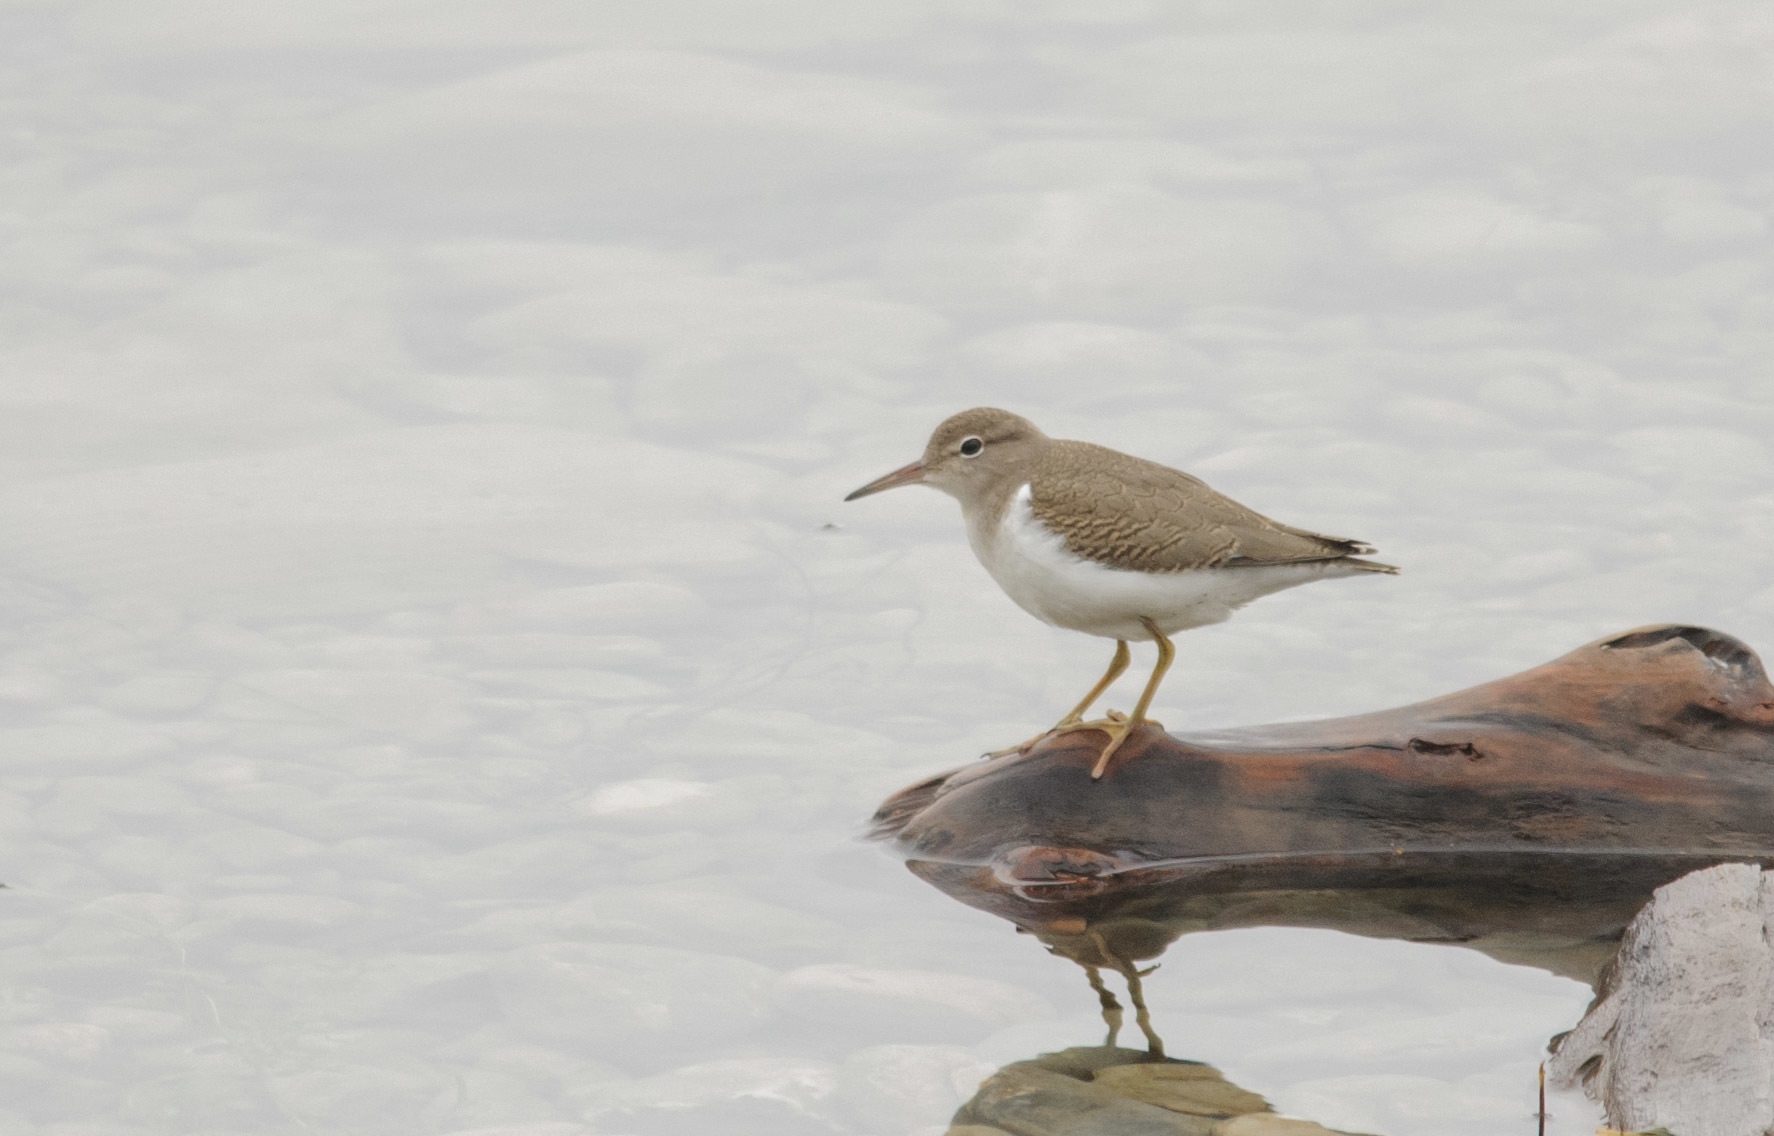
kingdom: Animalia
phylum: Chordata
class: Aves
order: Charadriiformes
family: Scolopacidae
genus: Actitis
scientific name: Actitis macularius
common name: Spotted sandpiper
